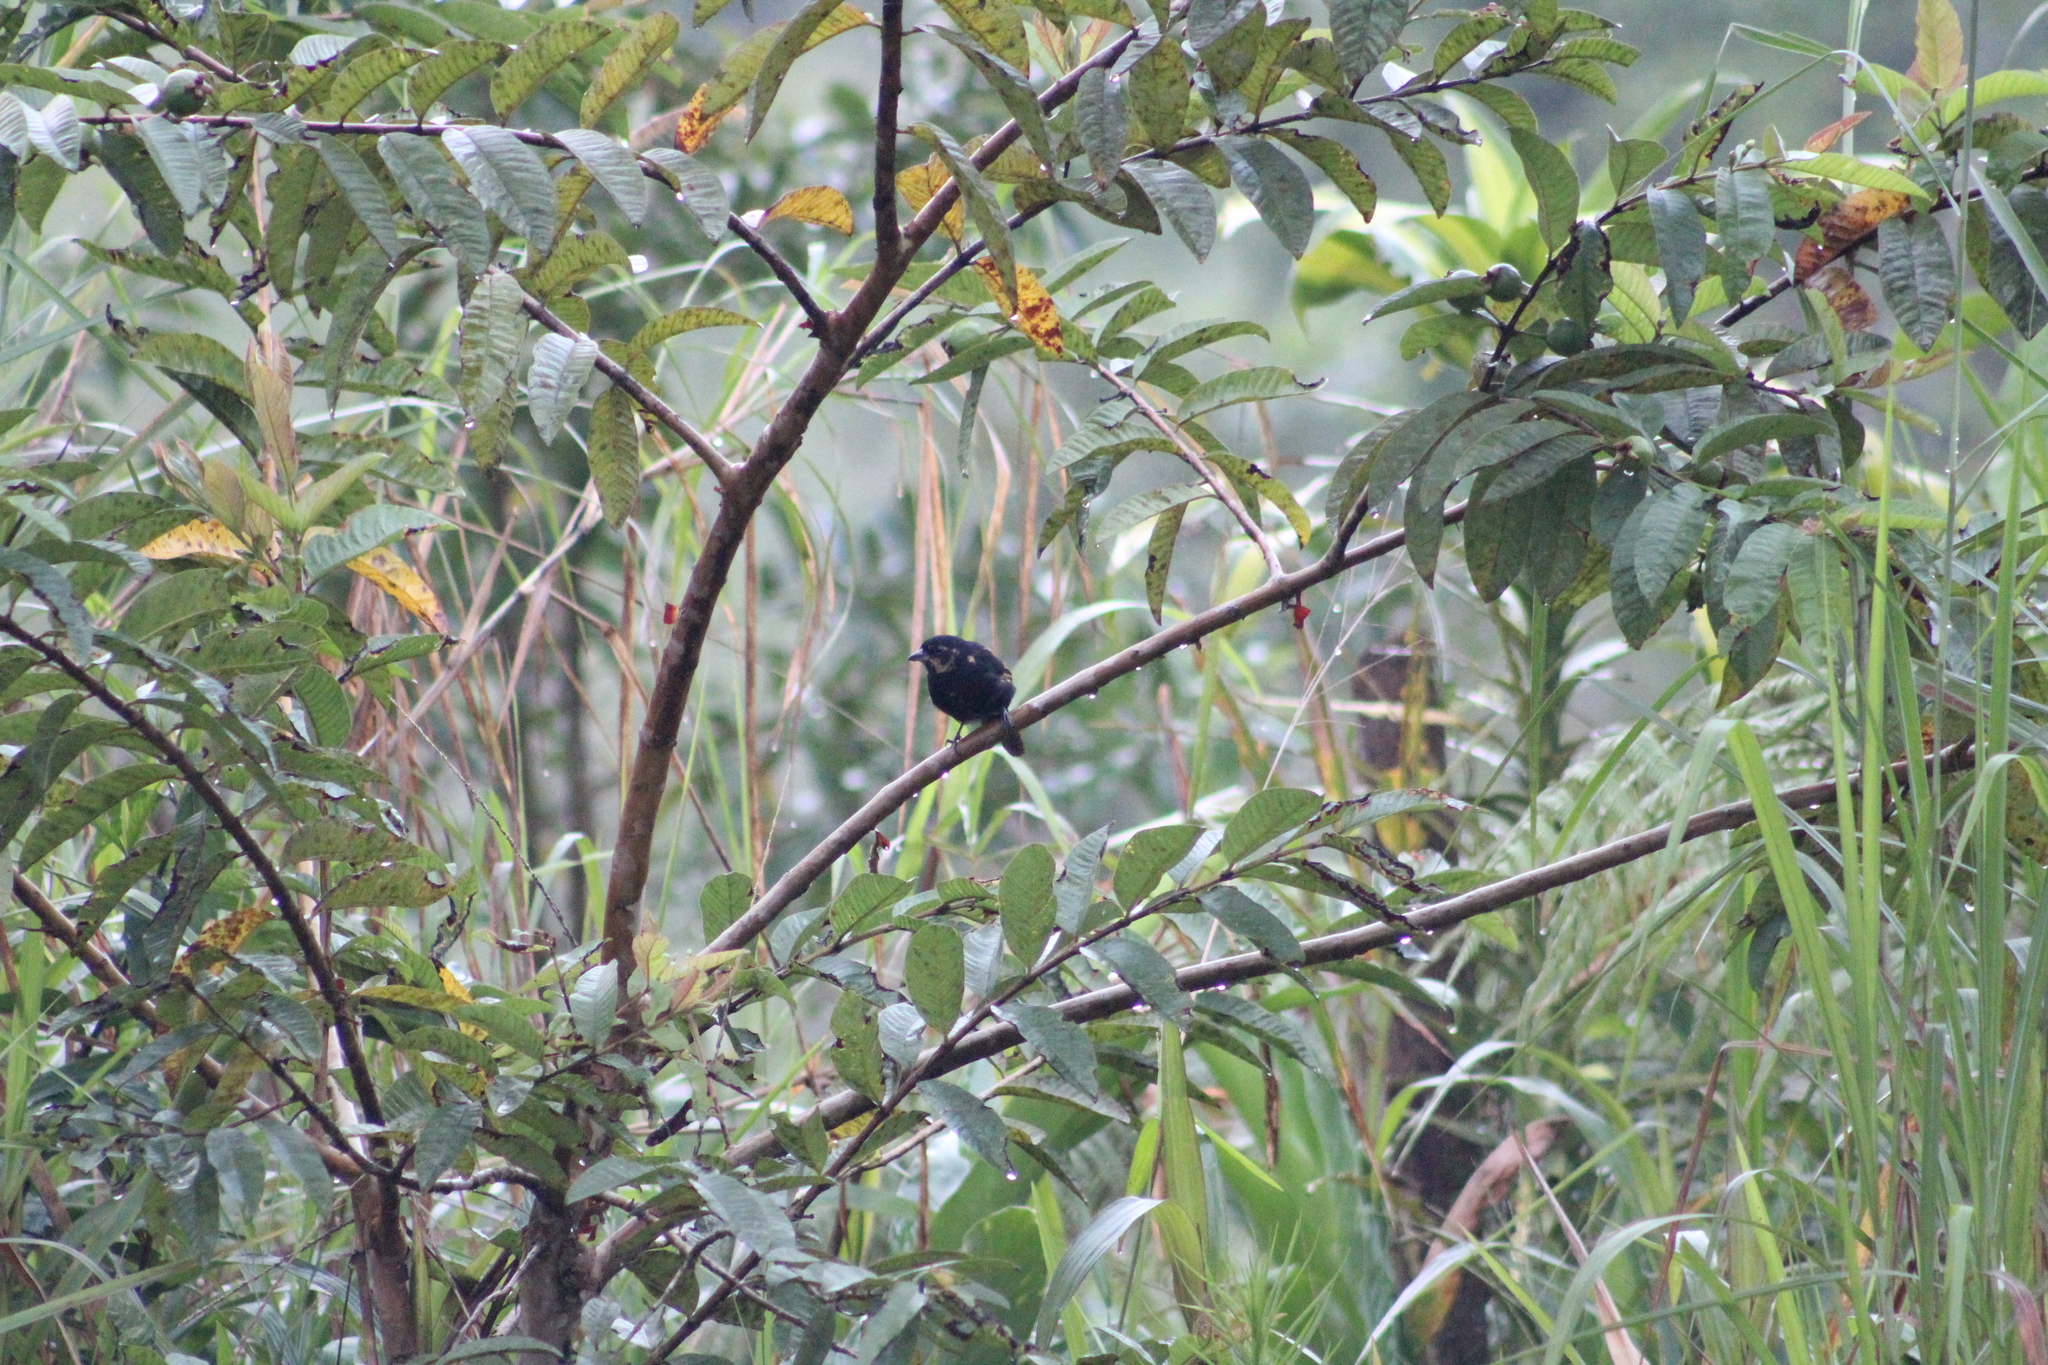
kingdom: Animalia
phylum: Chordata
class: Aves
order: Passeriformes
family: Thraupidae
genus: Tachyphonus
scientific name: Tachyphonus rufus
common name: White-lined tanager
